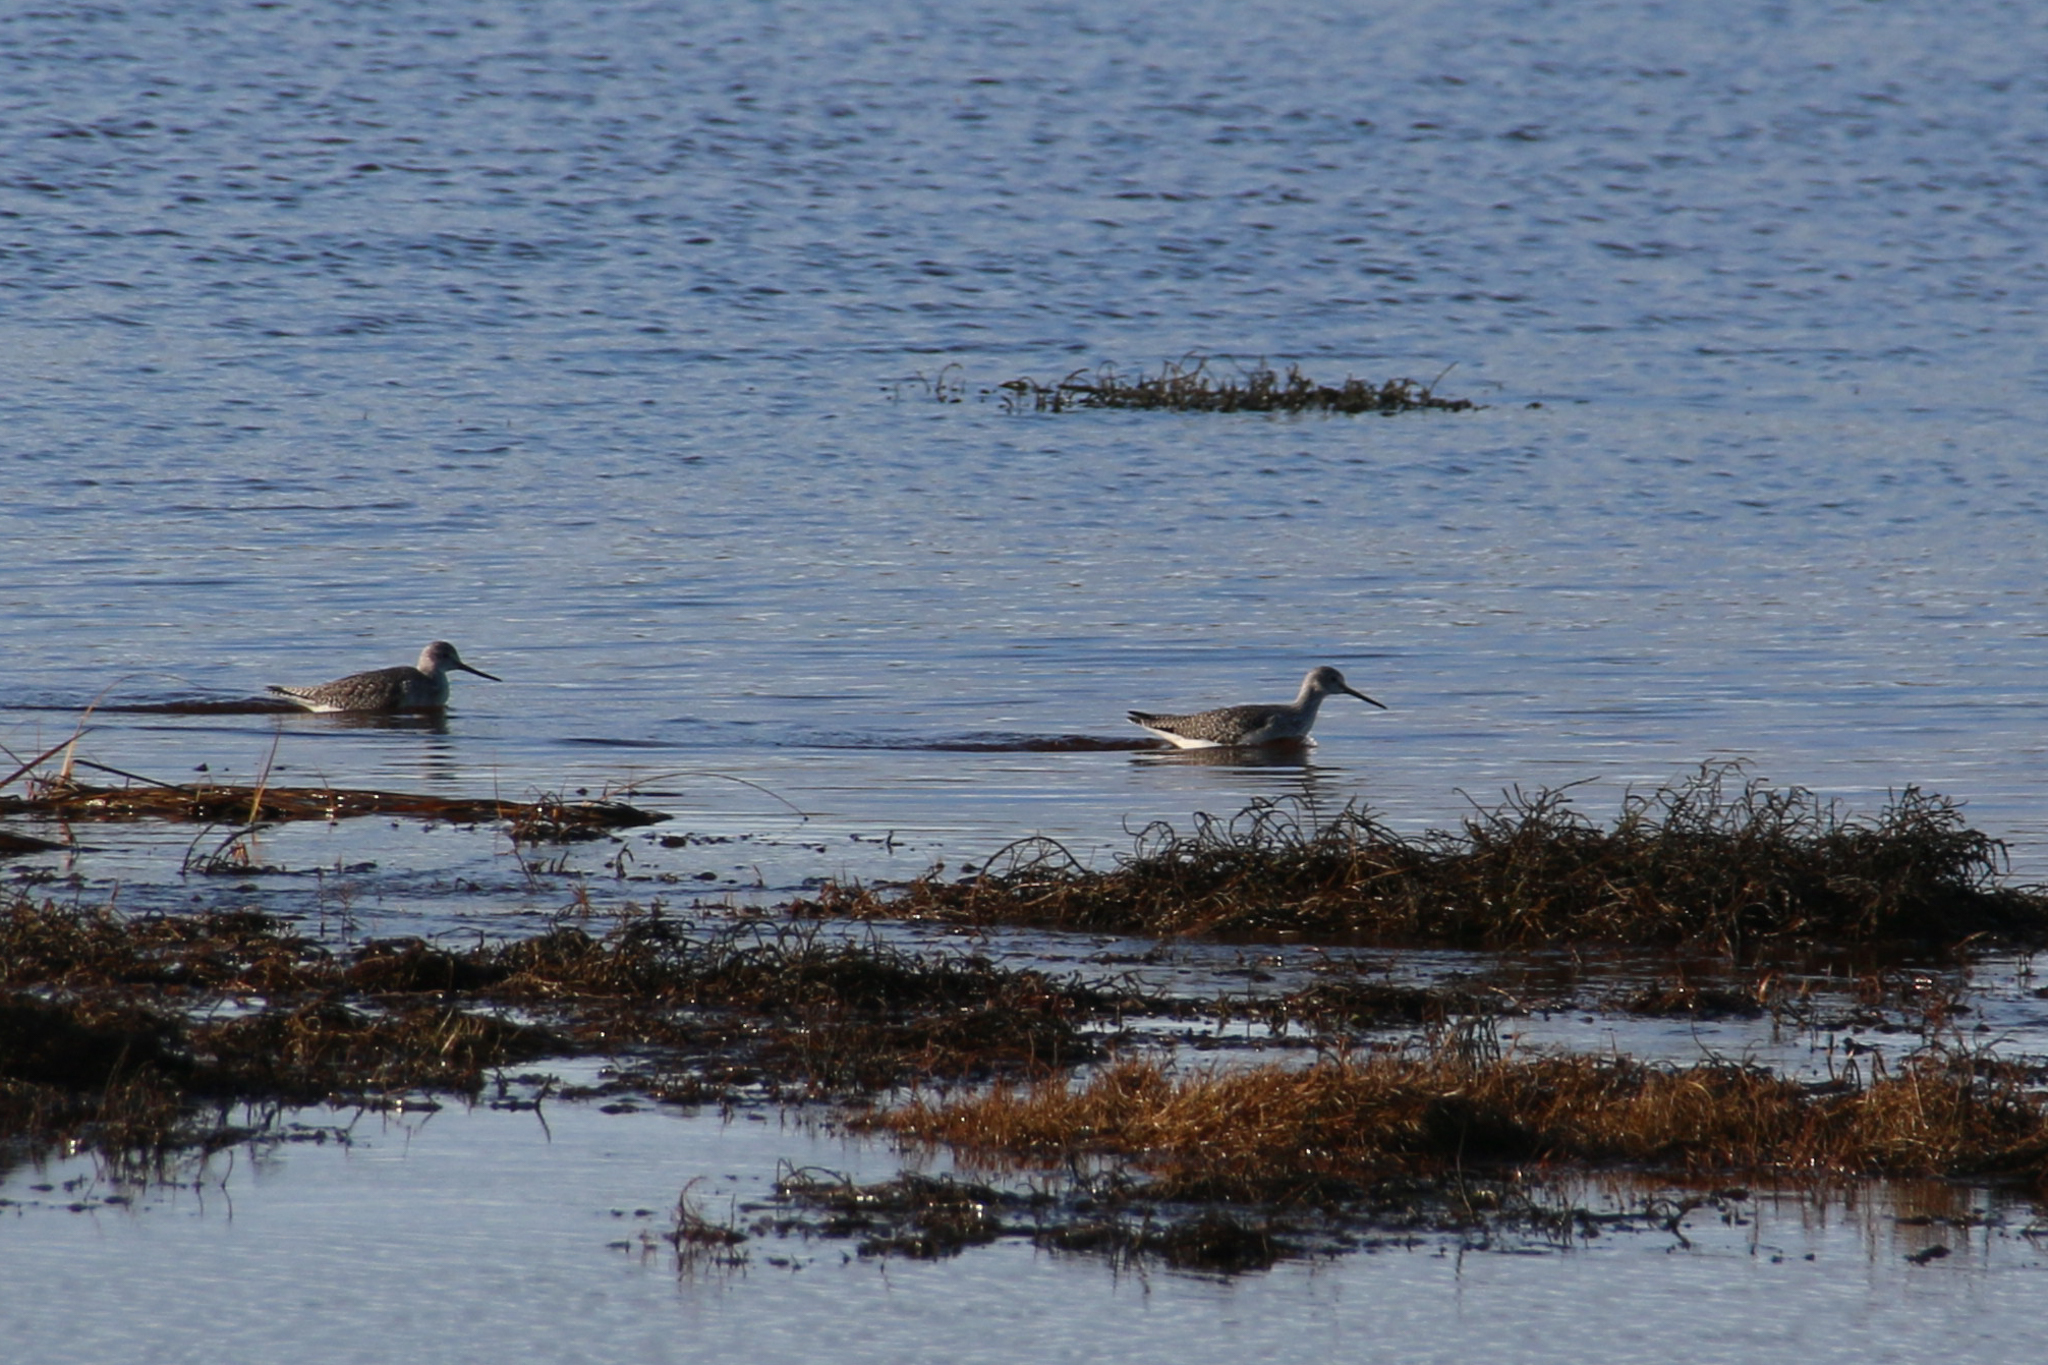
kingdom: Animalia
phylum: Chordata
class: Aves
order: Charadriiformes
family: Scolopacidae
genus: Tringa
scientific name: Tringa melanoleuca
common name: Greater yellowlegs
